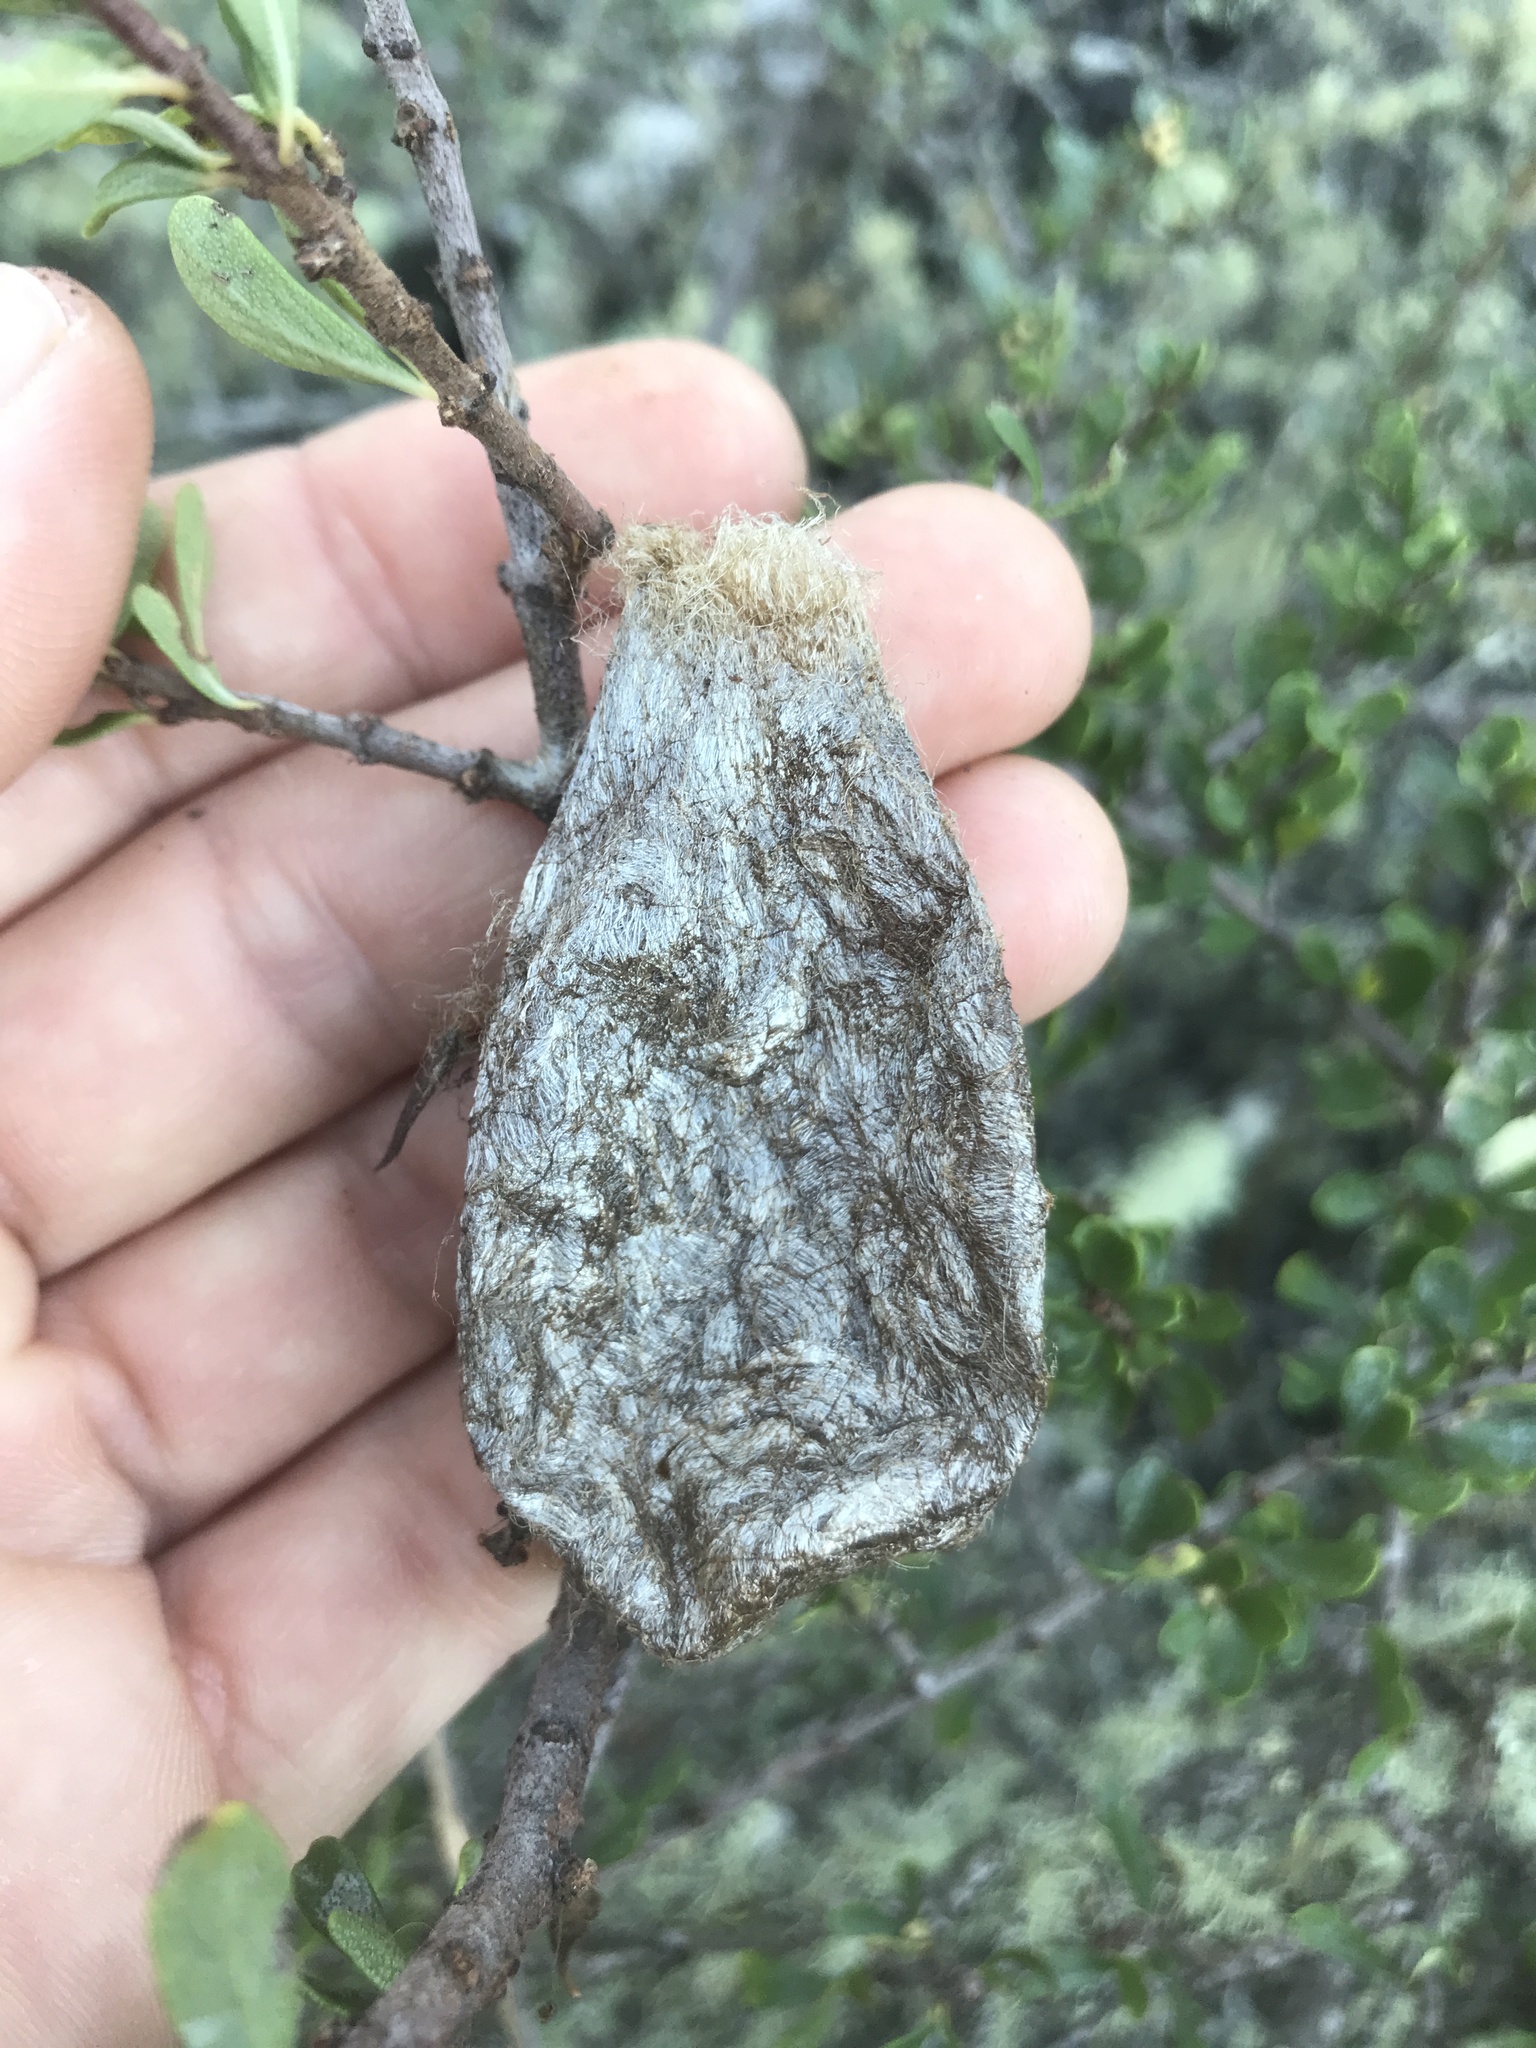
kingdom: Animalia
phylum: Arthropoda
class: Insecta
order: Lepidoptera
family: Saturniidae
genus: Hyalophora
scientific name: Hyalophora euryalus
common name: Ceanothus silkmoth
